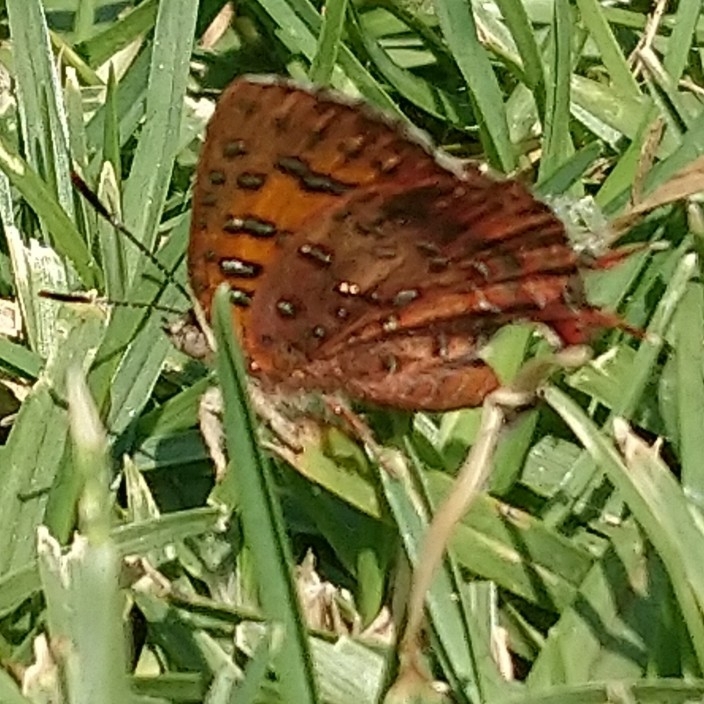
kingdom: Animalia
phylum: Arthropoda
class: Insecta
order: Lepidoptera
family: Lycaenidae
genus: Axiocerses
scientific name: Axiocerses perion
